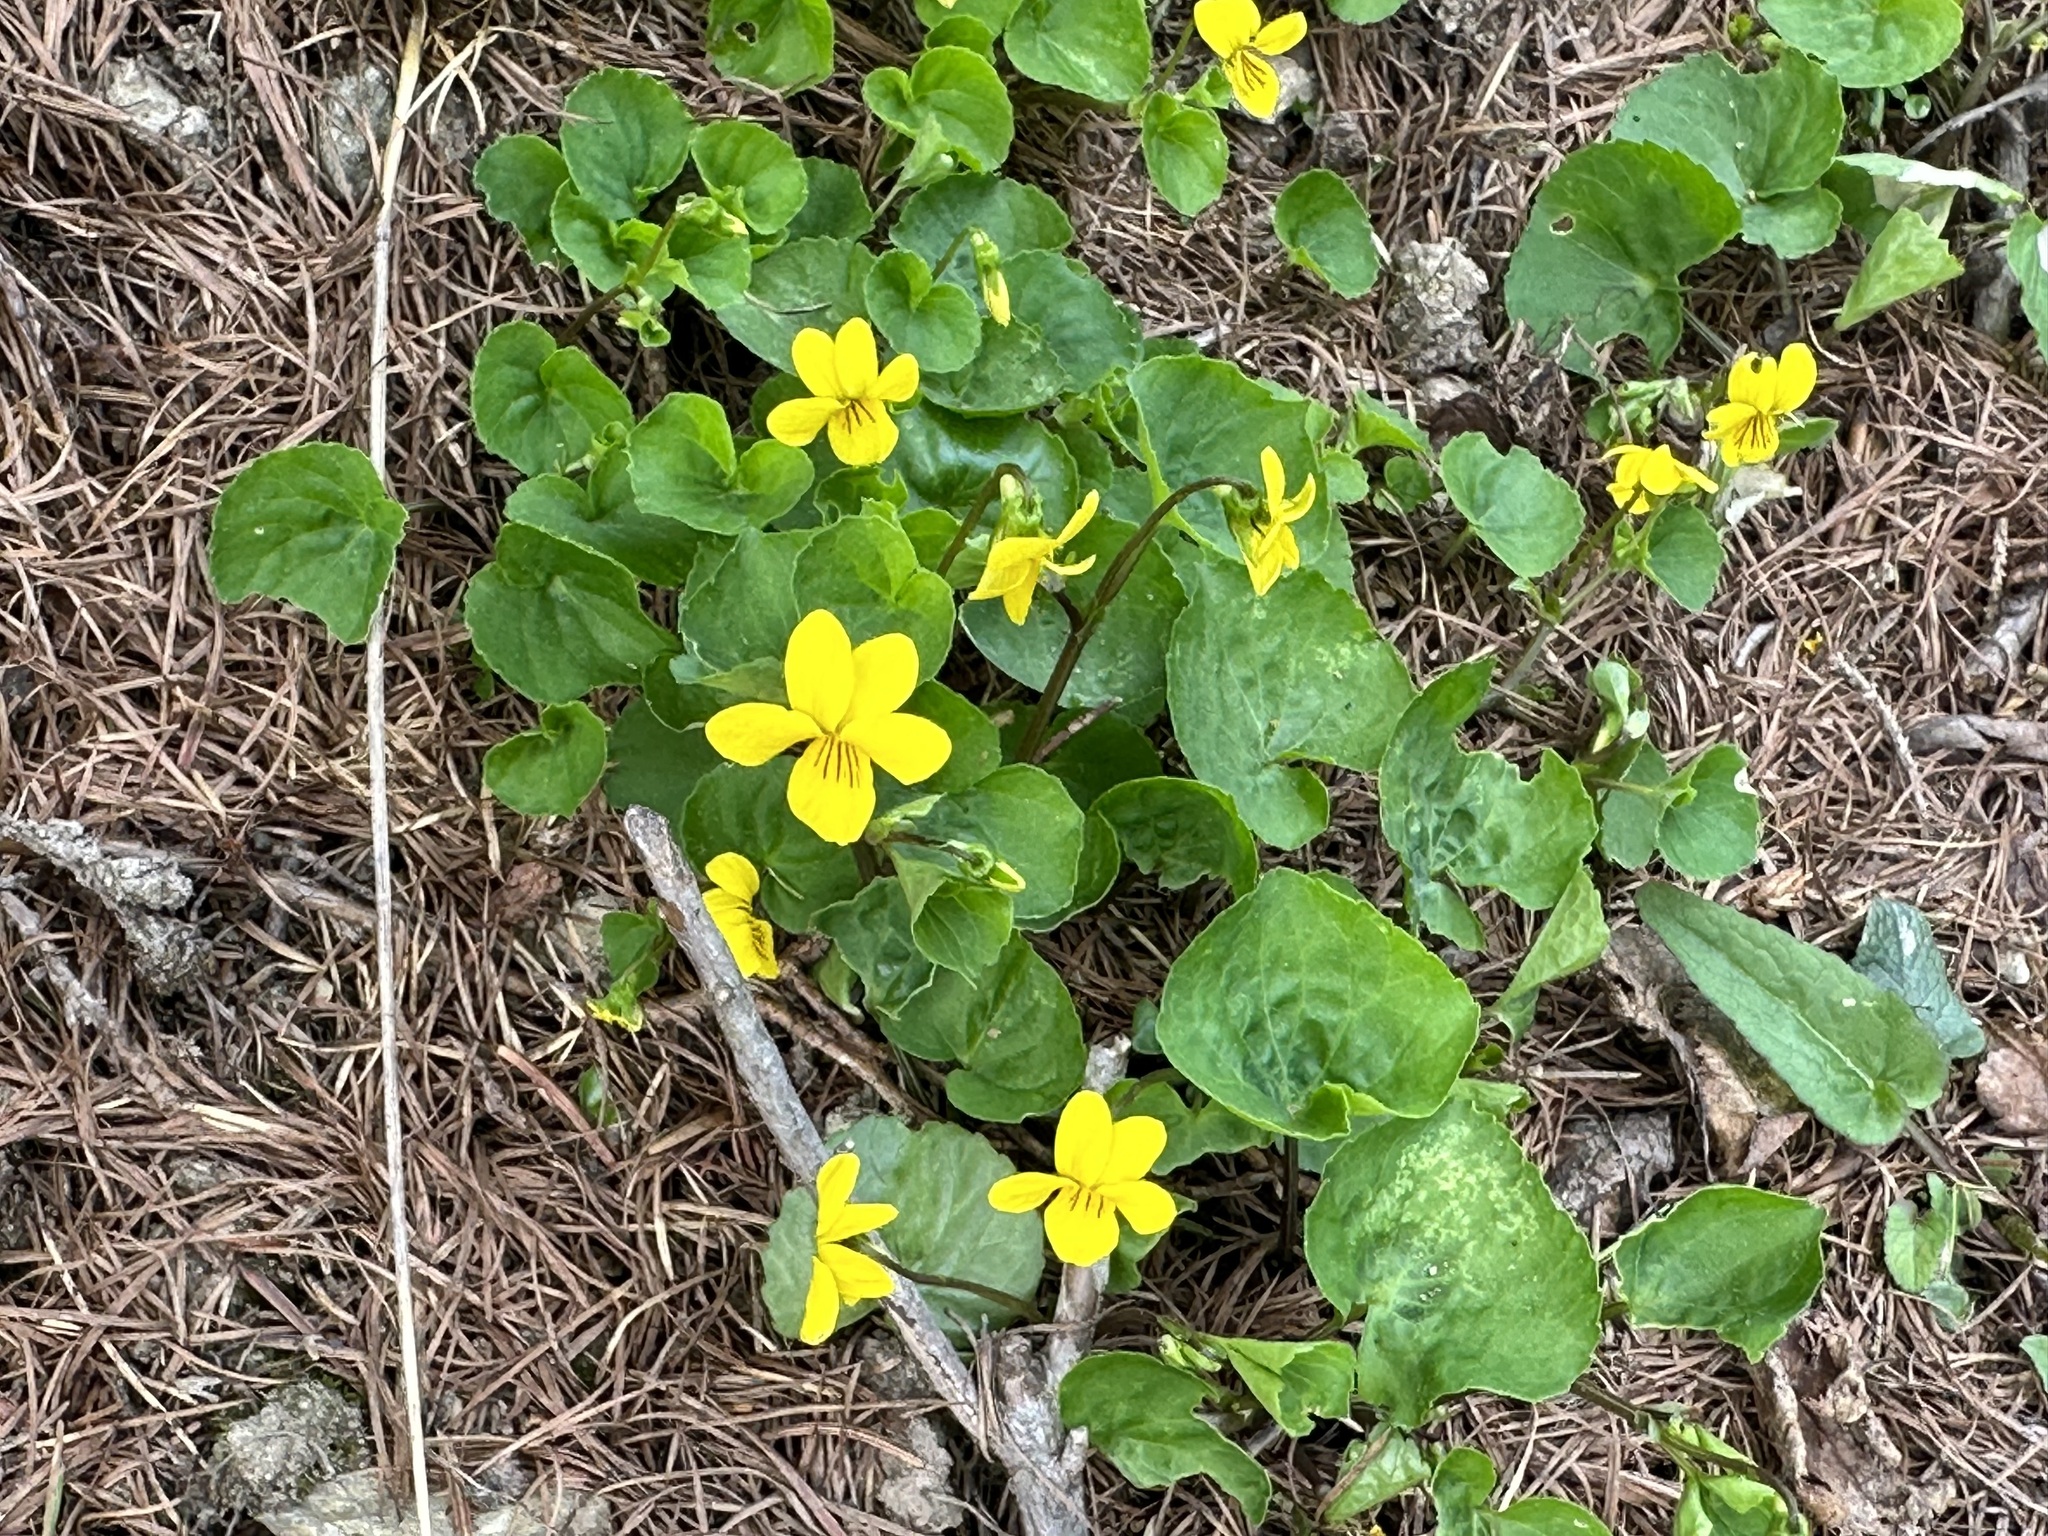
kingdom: Plantae
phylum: Tracheophyta
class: Magnoliopsida
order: Malpighiales
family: Violaceae
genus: Viola
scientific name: Viola biflora
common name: Alpine yellow violet
